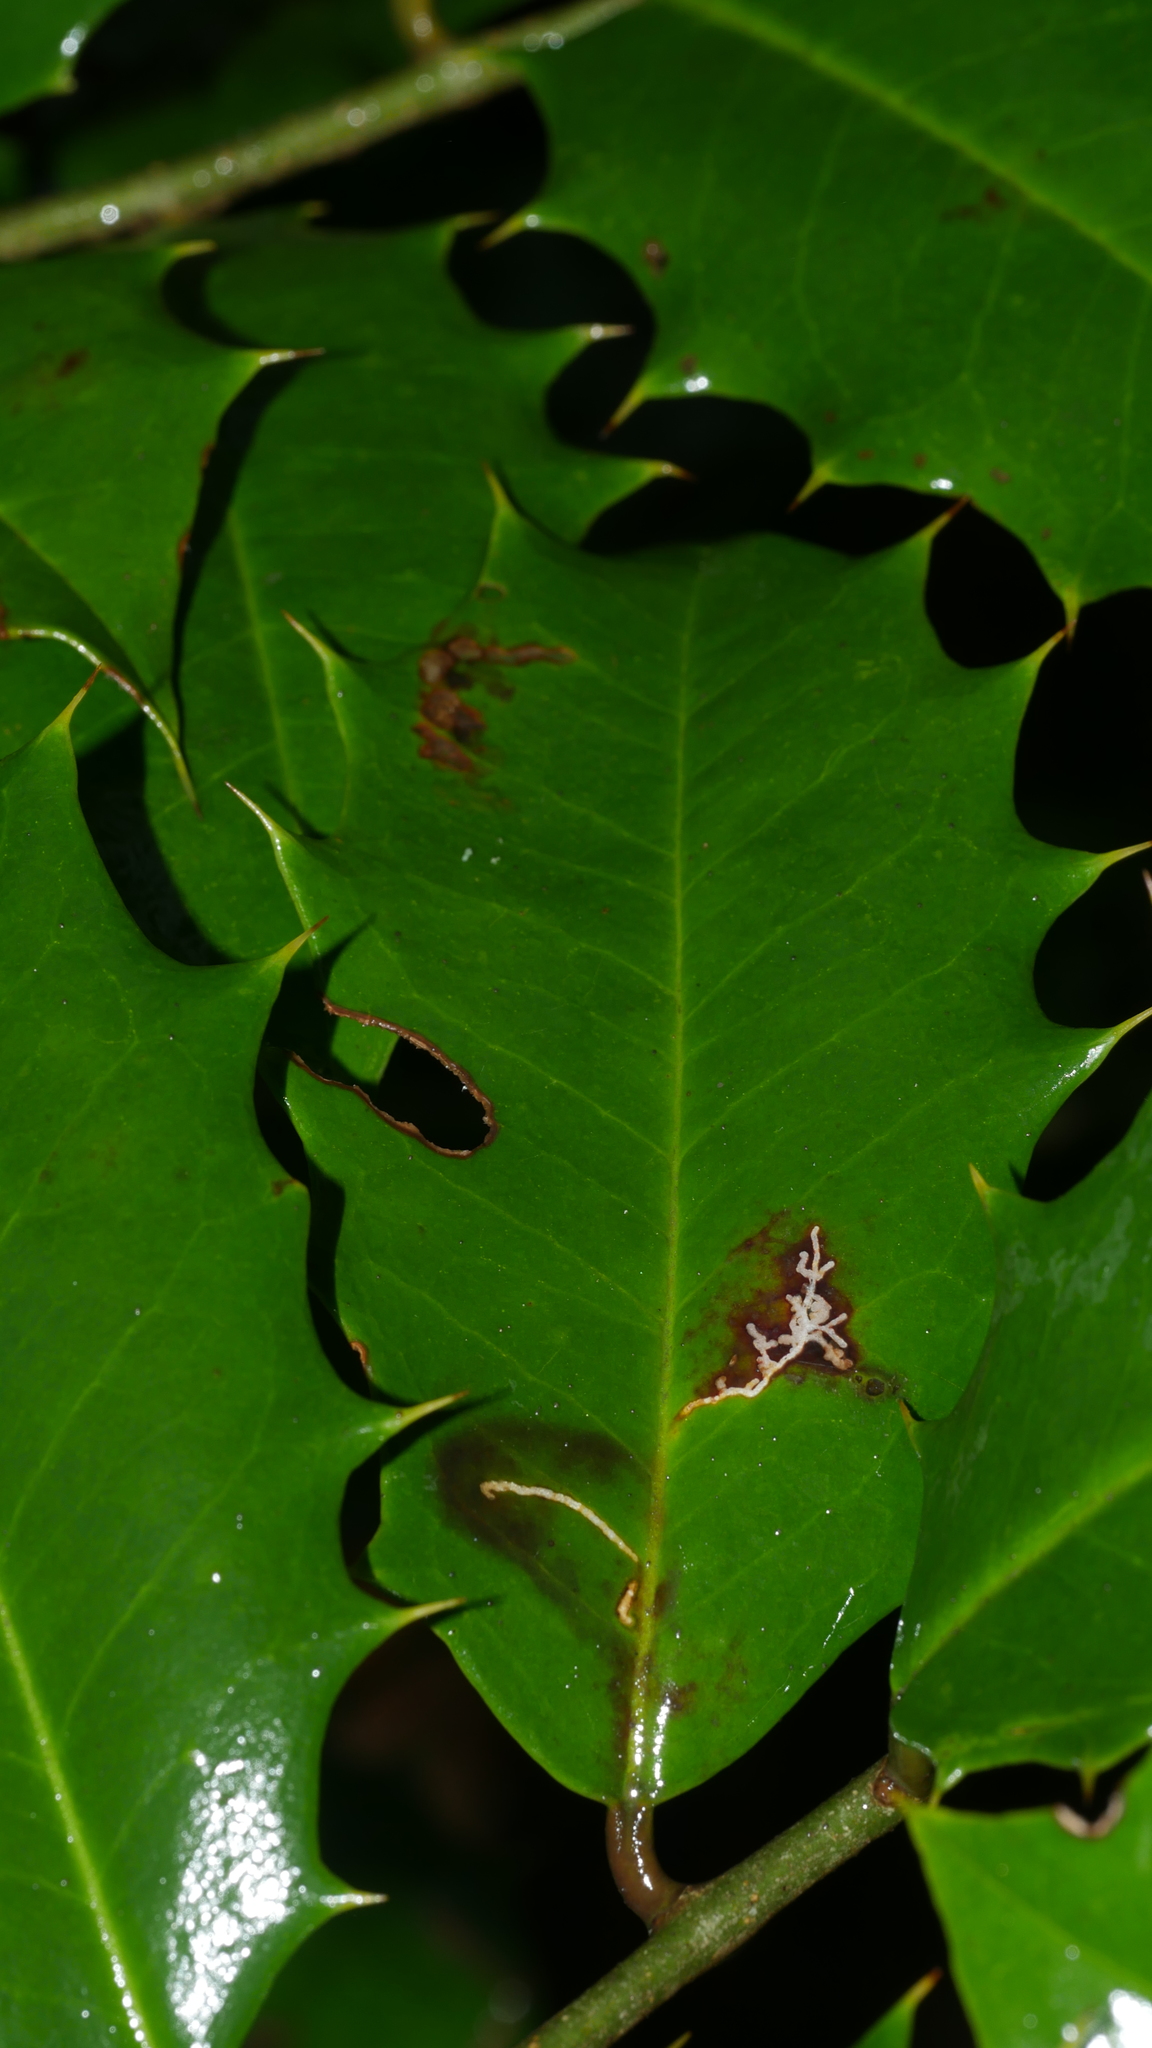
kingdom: Animalia
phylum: Arthropoda
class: Insecta
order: Lepidoptera
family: Tortricidae
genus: Rhopobota
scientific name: Rhopobota
